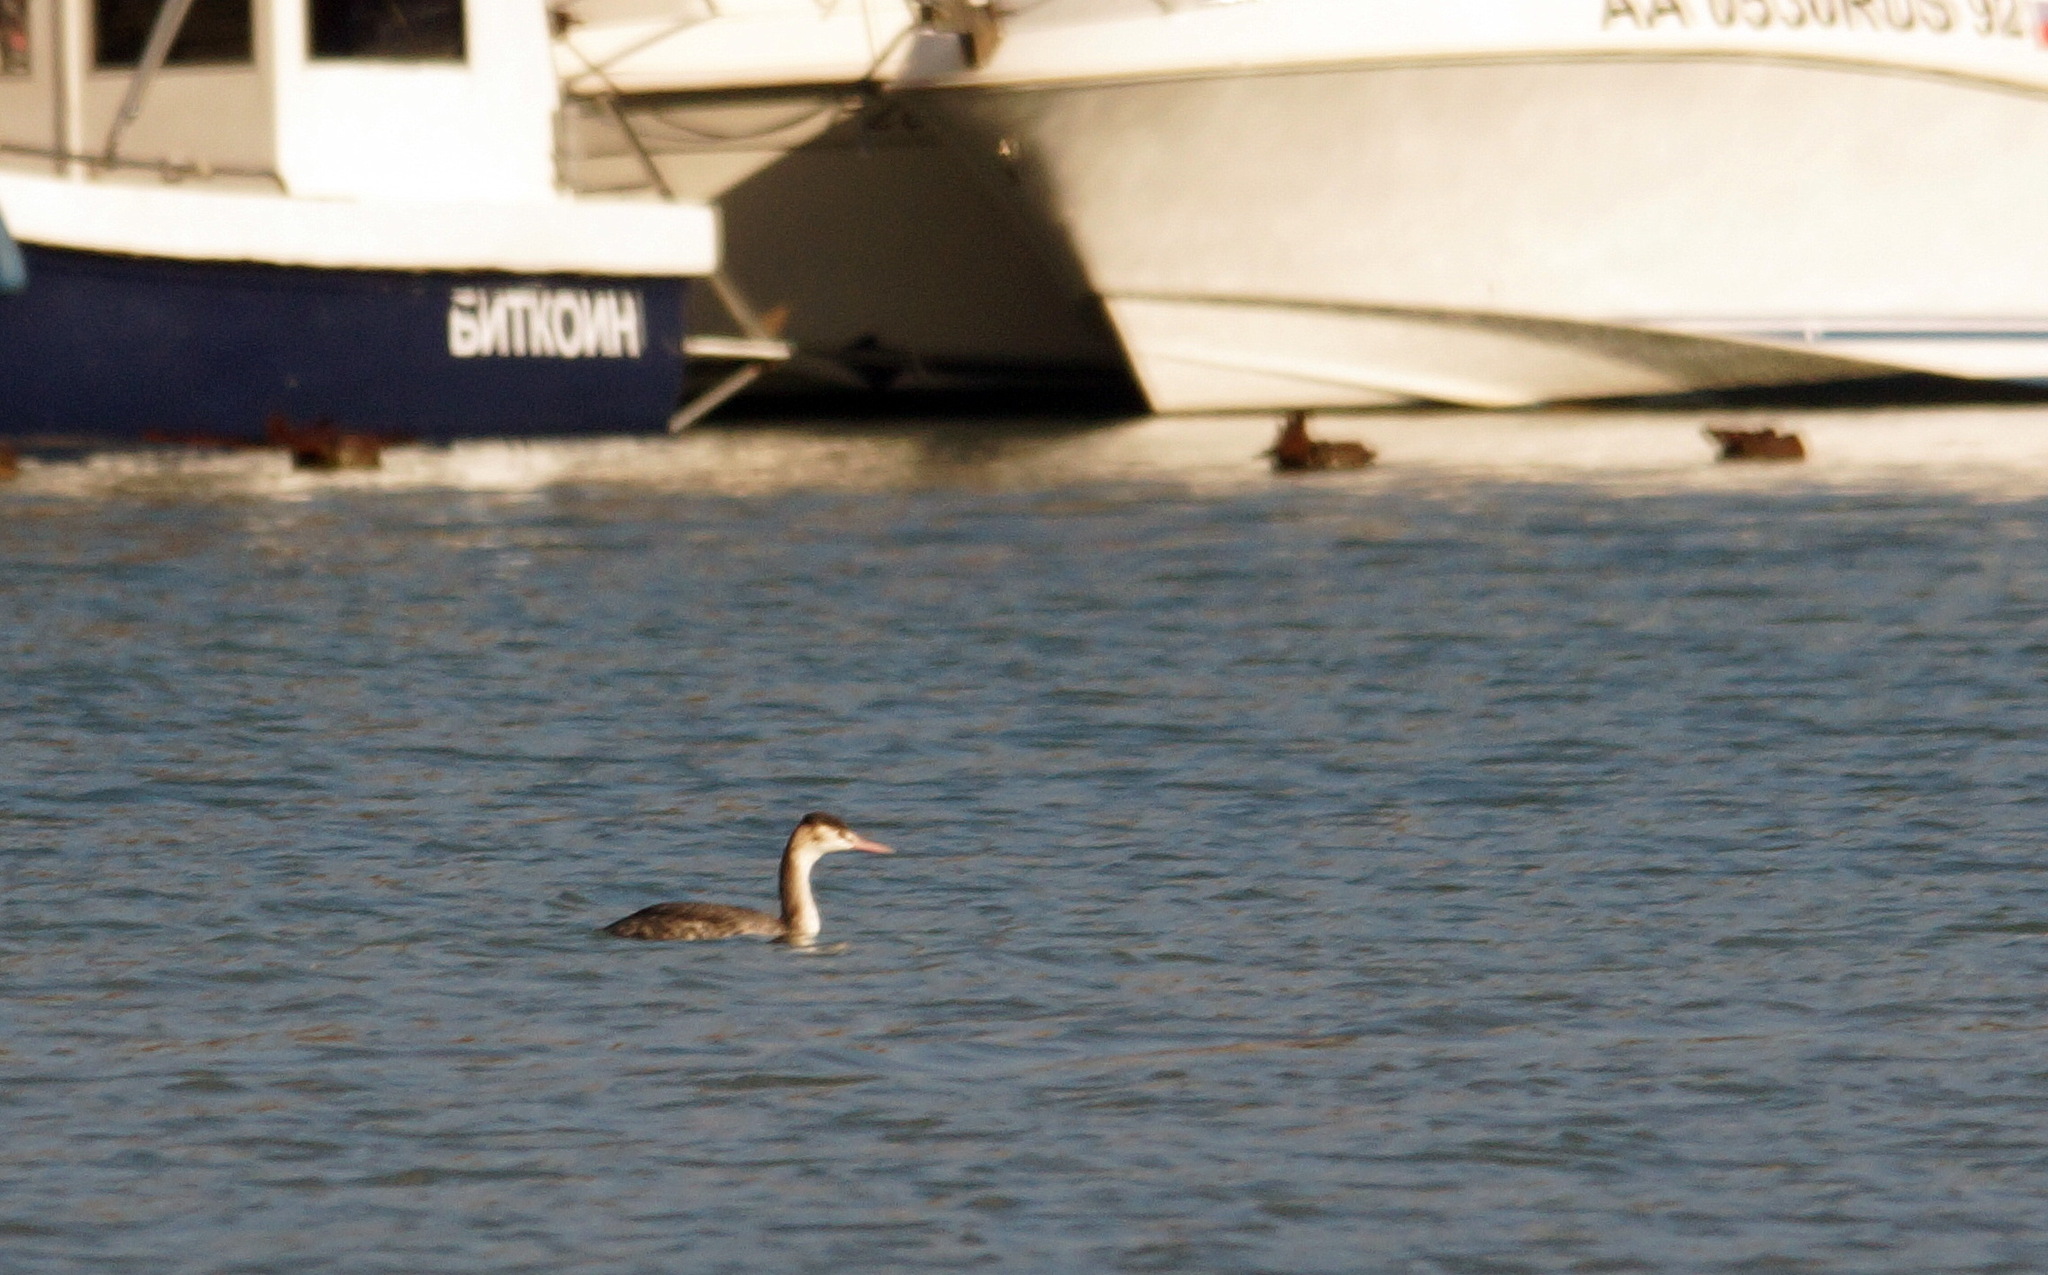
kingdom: Animalia
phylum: Chordata
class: Aves
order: Podicipediformes
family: Podicipedidae
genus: Podiceps
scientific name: Podiceps cristatus
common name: Great crested grebe
